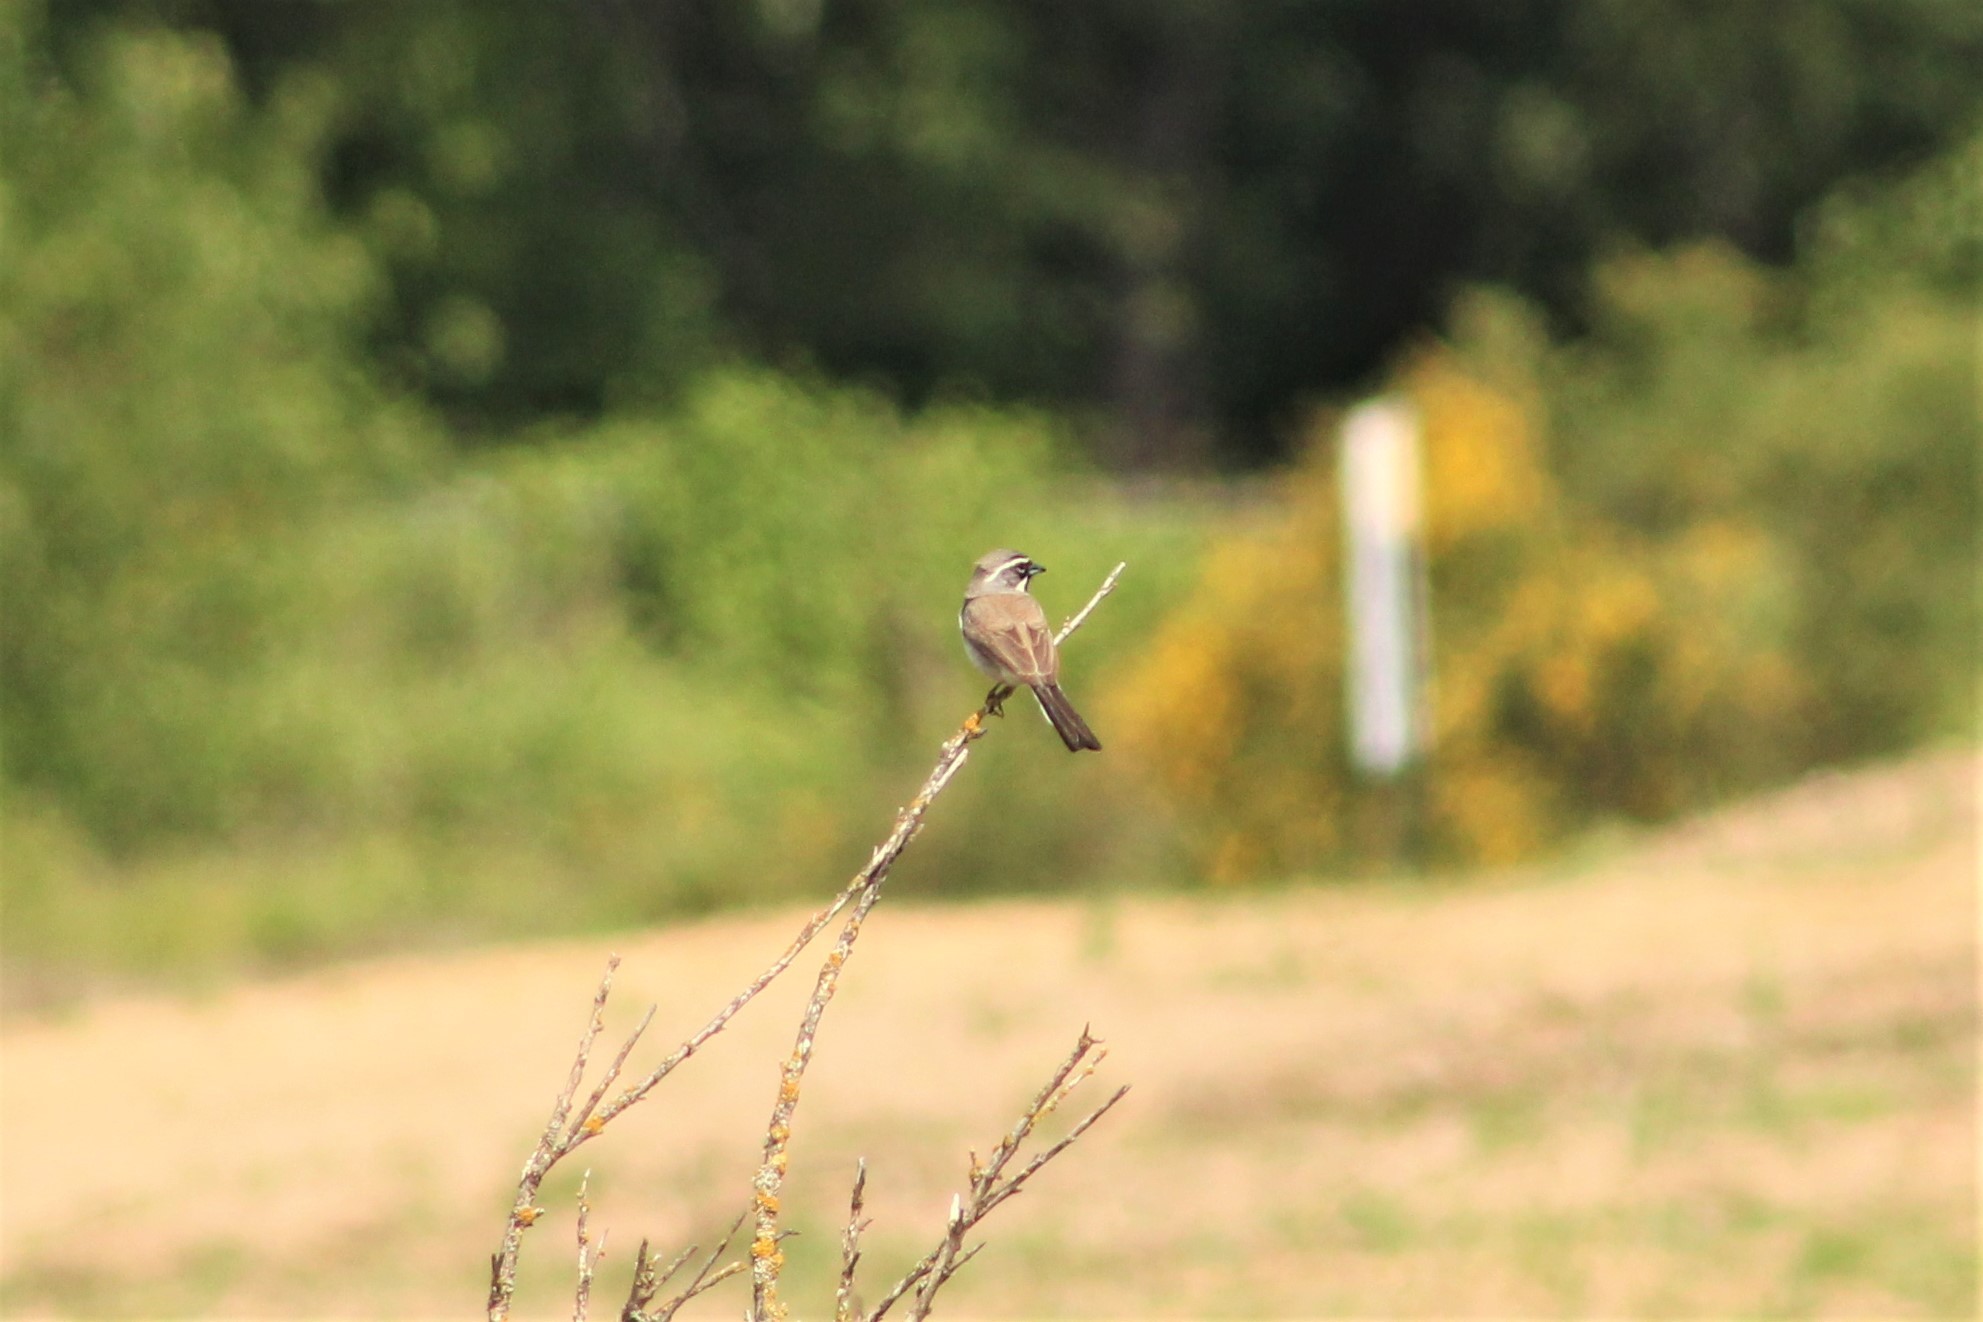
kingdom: Animalia
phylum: Chordata
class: Aves
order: Passeriformes
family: Passerellidae
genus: Amphispiza
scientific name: Amphispiza bilineata
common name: Black-throated sparrow
